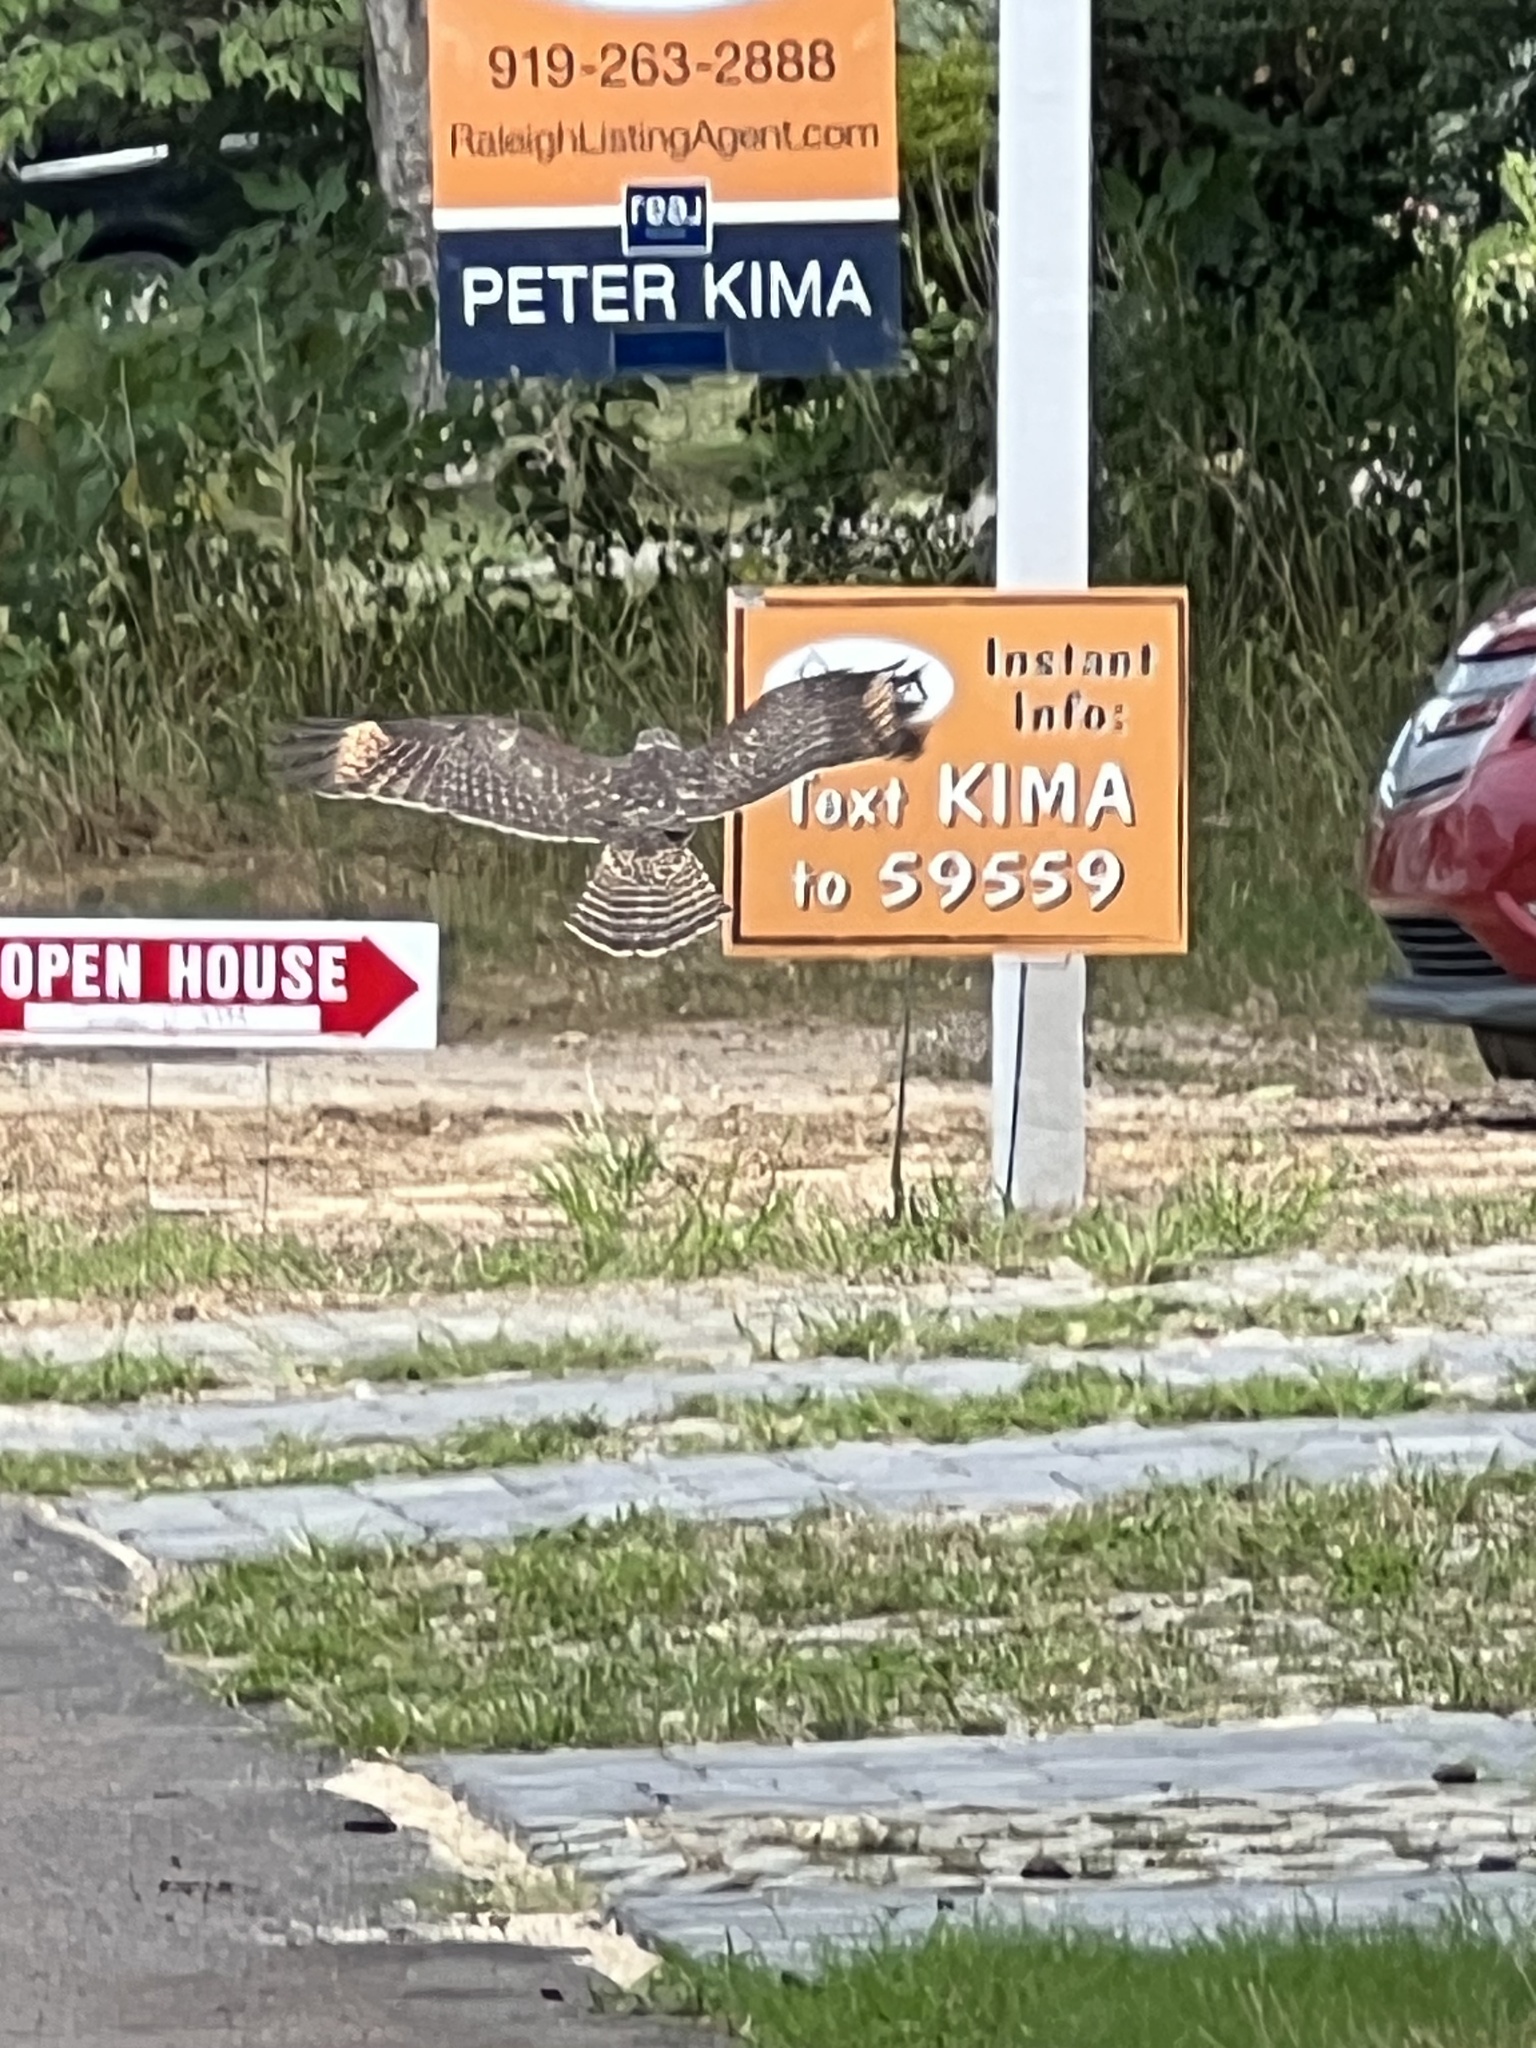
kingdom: Animalia
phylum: Chordata
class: Aves
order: Accipitriformes
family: Accipitridae
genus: Buteo
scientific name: Buteo lineatus
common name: Red-shouldered hawk
